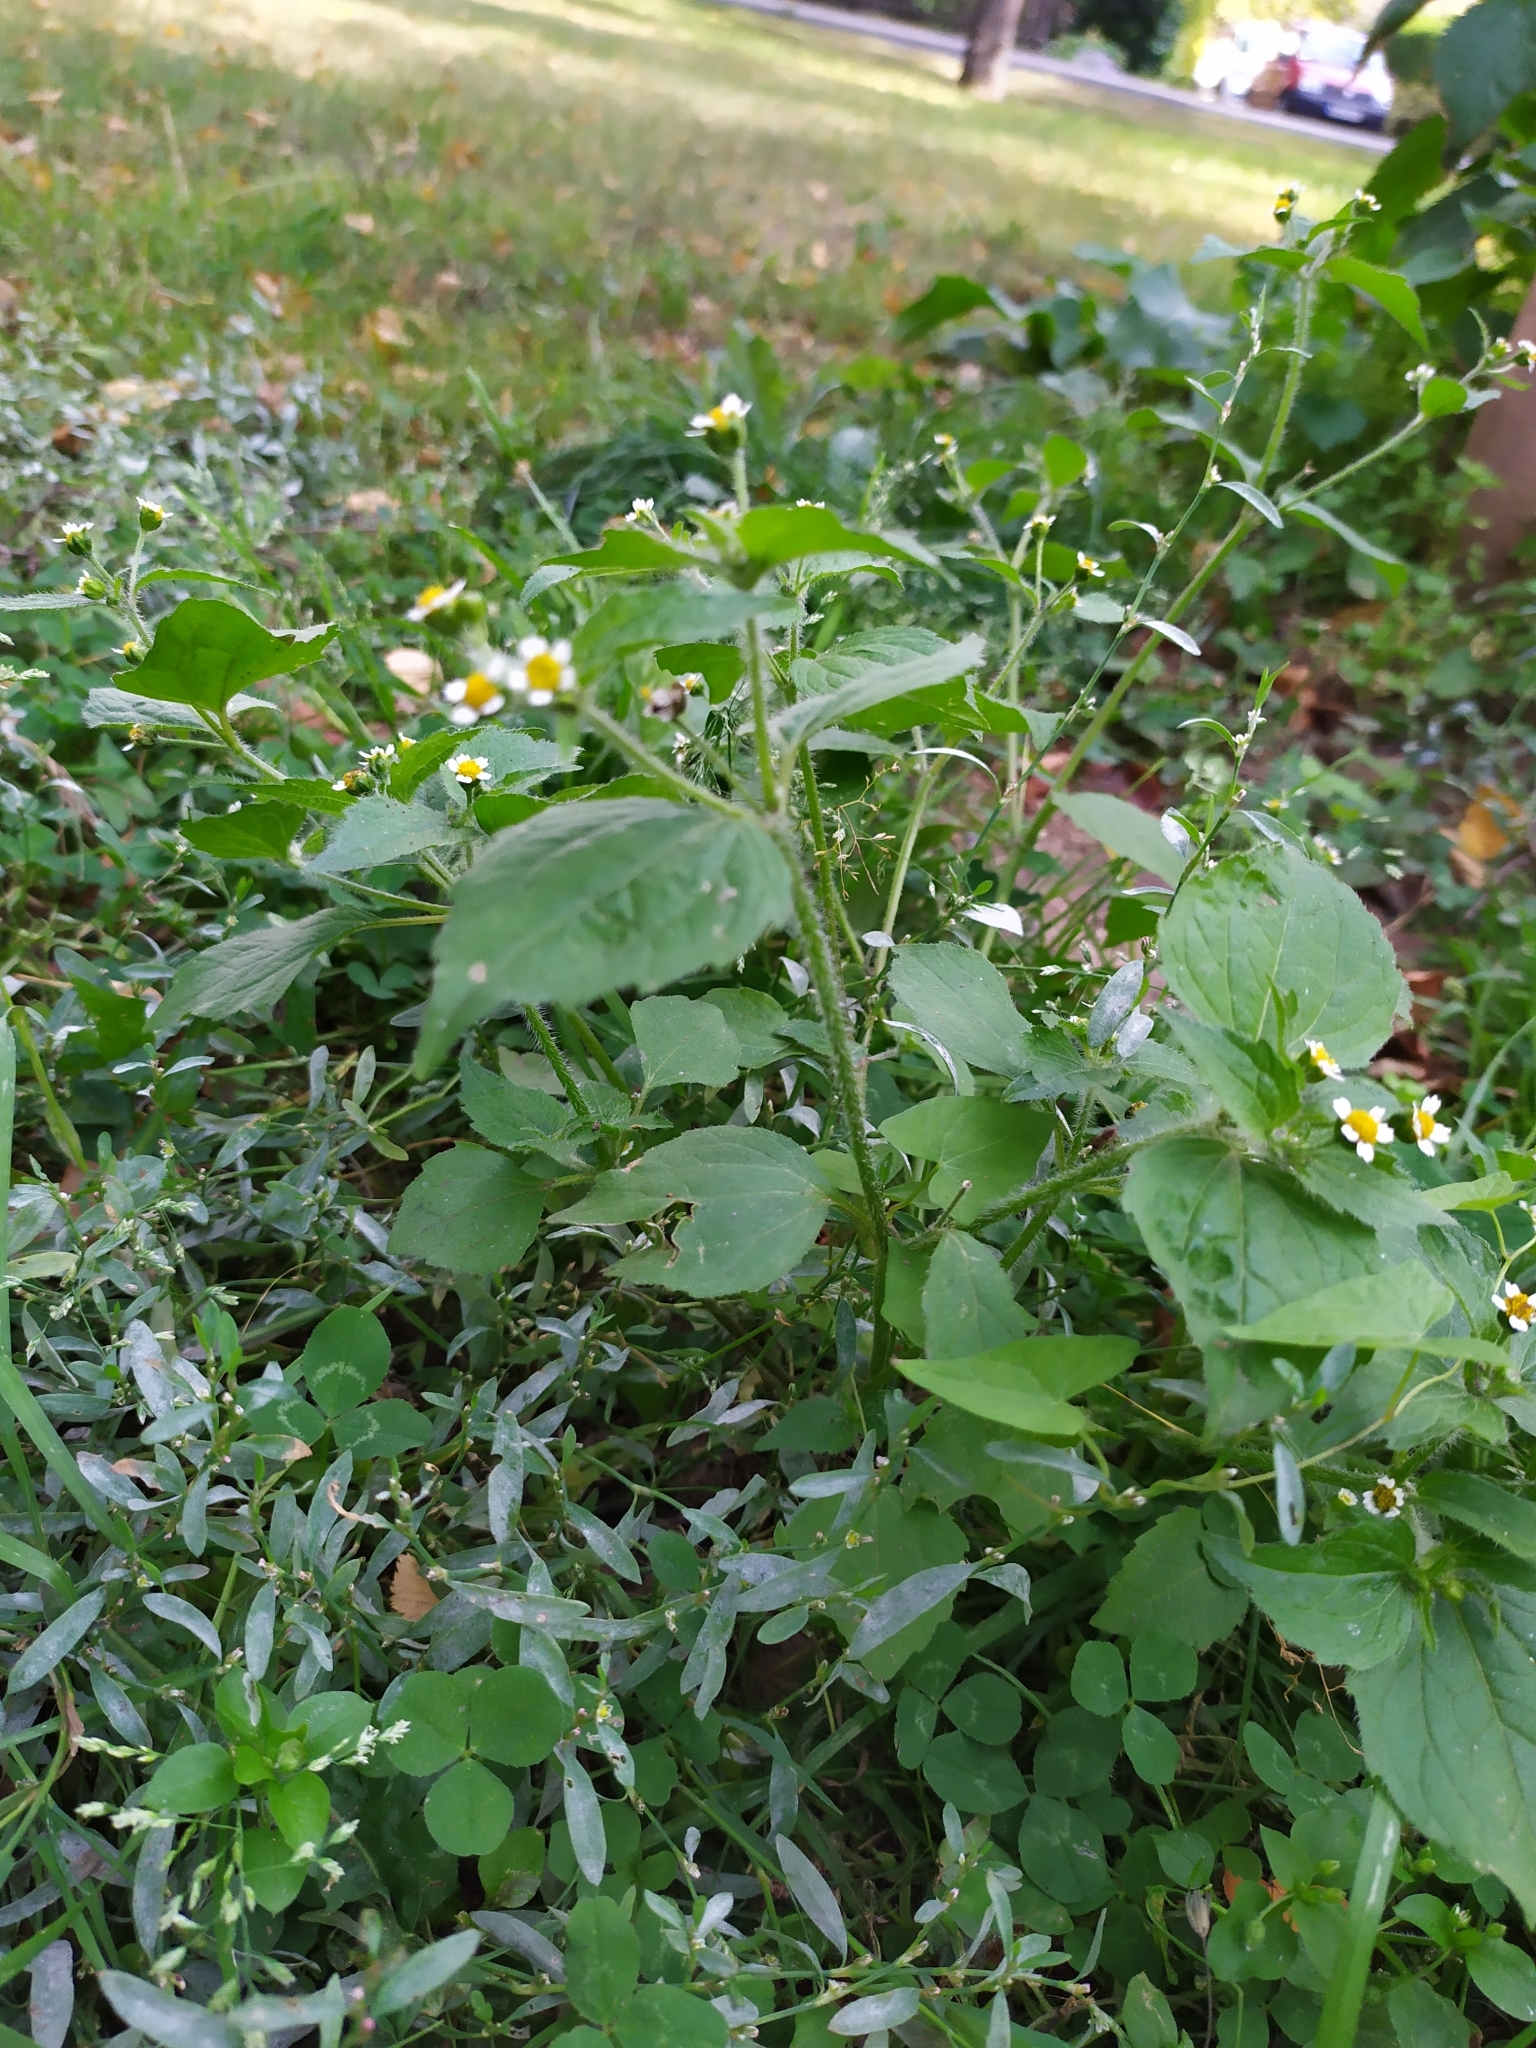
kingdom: Plantae
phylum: Tracheophyta
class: Magnoliopsida
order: Asterales
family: Asteraceae
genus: Galinsoga
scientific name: Galinsoga quadriradiata
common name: Shaggy soldier
